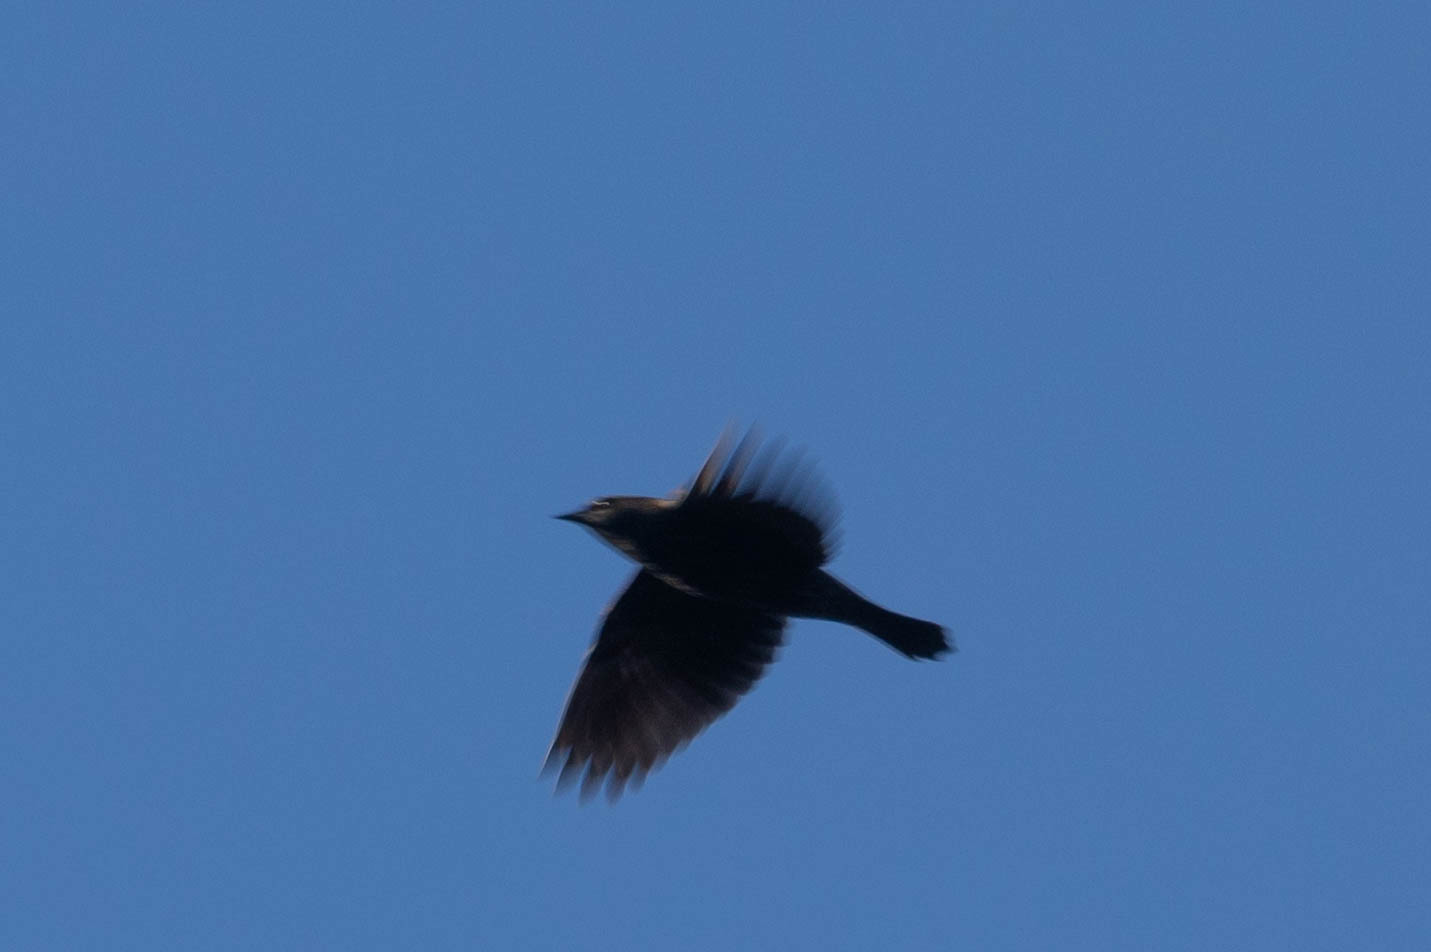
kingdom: Animalia
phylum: Chordata
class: Aves
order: Passeriformes
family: Icteridae
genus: Agelaius
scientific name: Agelaius phoeniceus
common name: Red-winged blackbird
